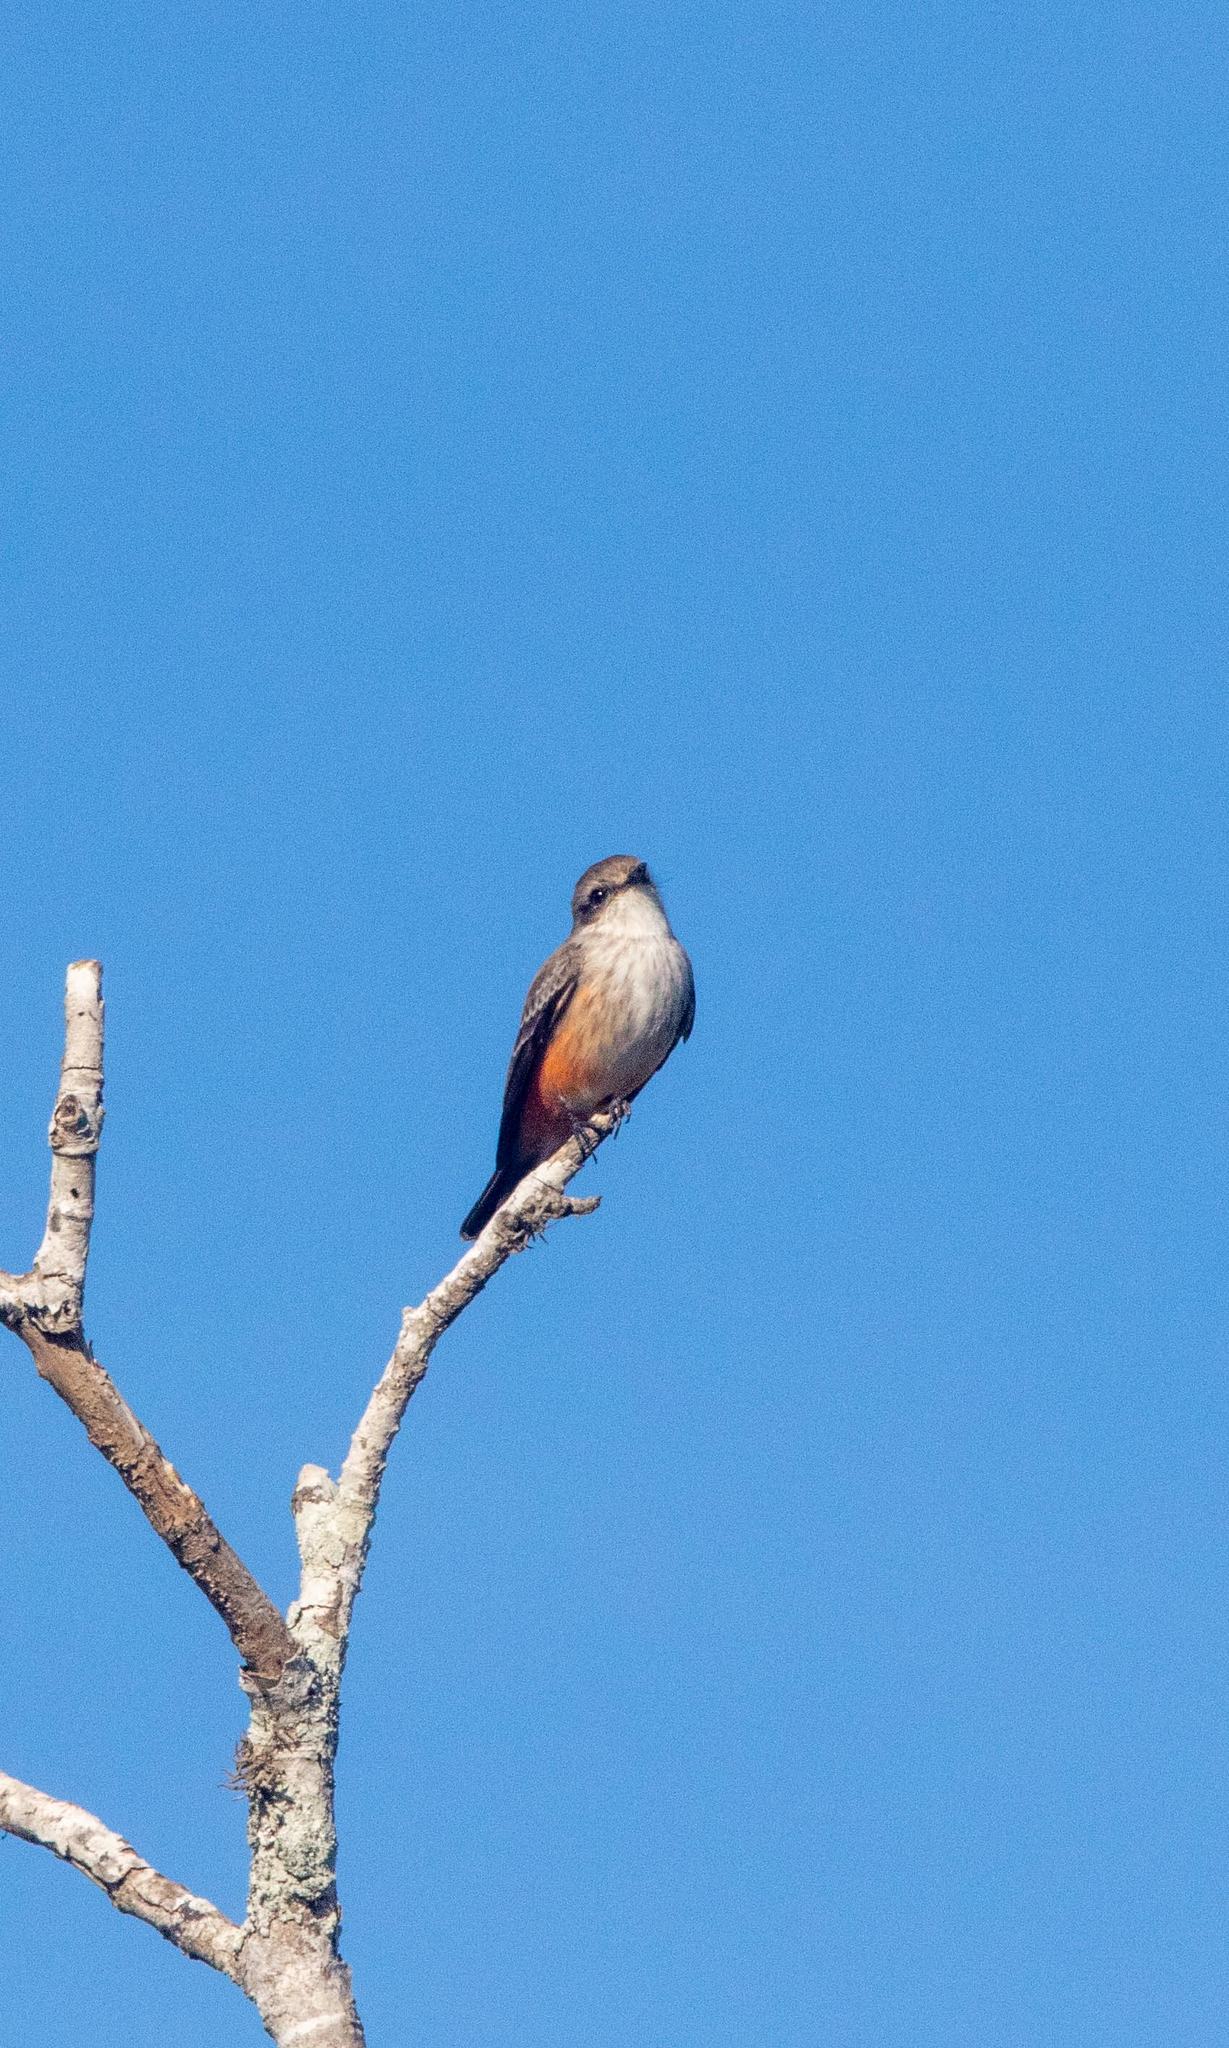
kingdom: Animalia
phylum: Chordata
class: Aves
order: Passeriformes
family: Tyrannidae
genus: Pyrocephalus
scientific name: Pyrocephalus rubinus
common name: Vermilion flycatcher
